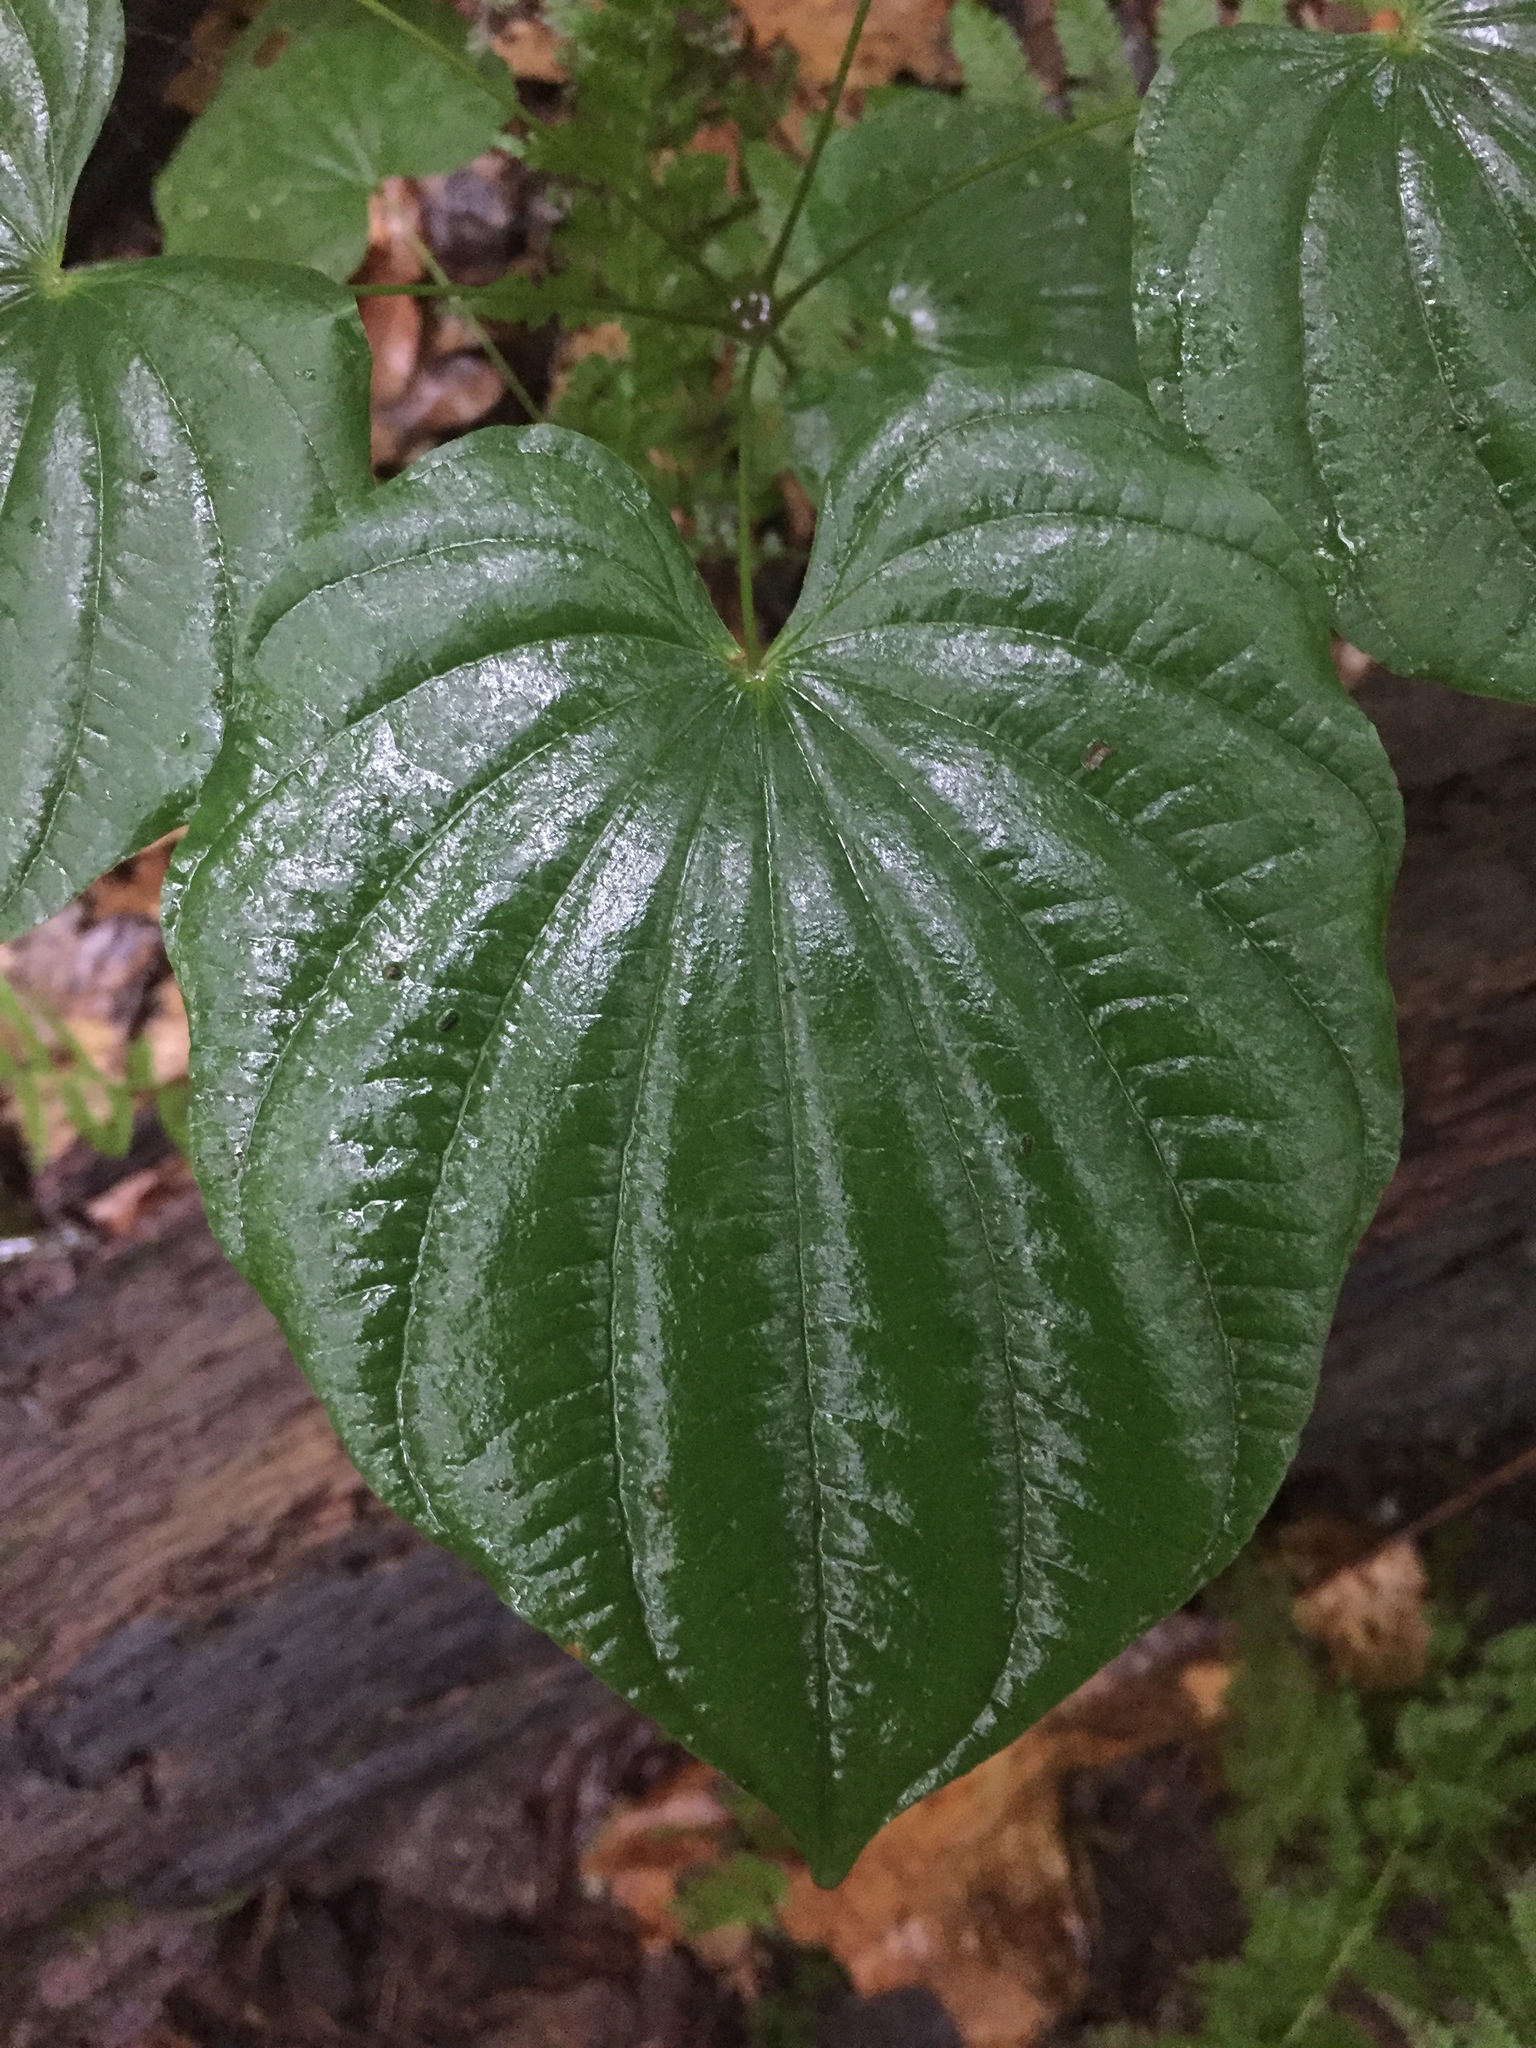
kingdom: Plantae
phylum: Tracheophyta
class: Liliopsida
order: Dioscoreales
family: Dioscoreaceae
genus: Dioscorea
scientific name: Dioscorea villosa
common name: Wild yam
